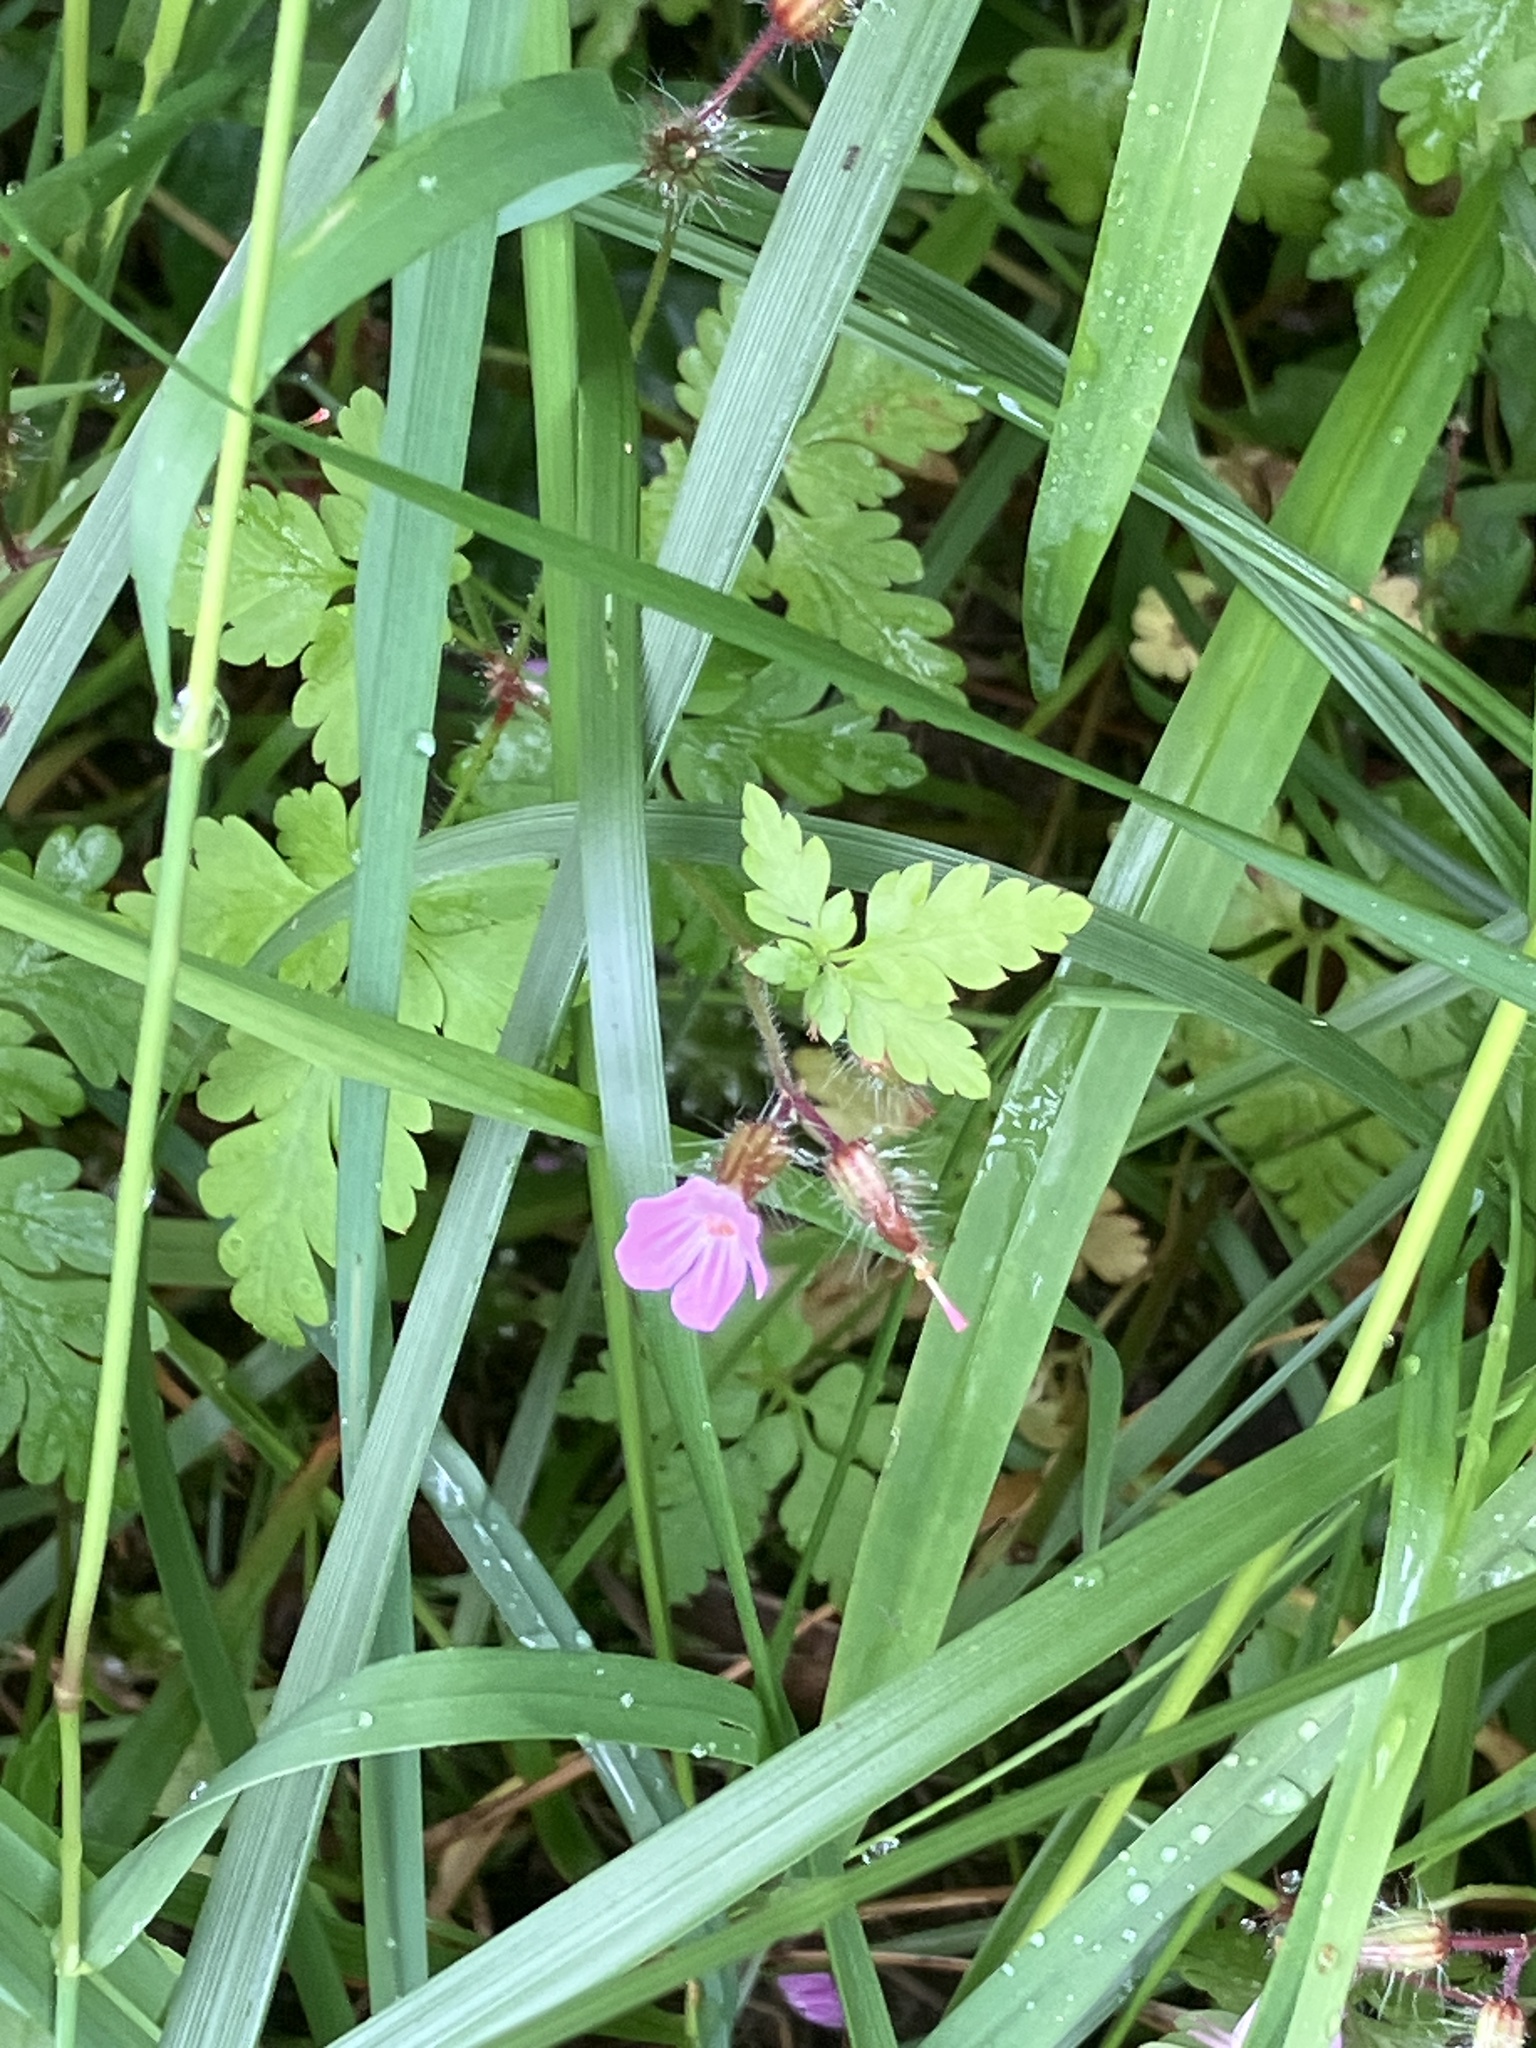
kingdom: Plantae
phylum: Tracheophyta
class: Magnoliopsida
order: Geraniales
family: Geraniaceae
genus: Geranium
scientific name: Geranium robertianum
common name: Herb-robert
